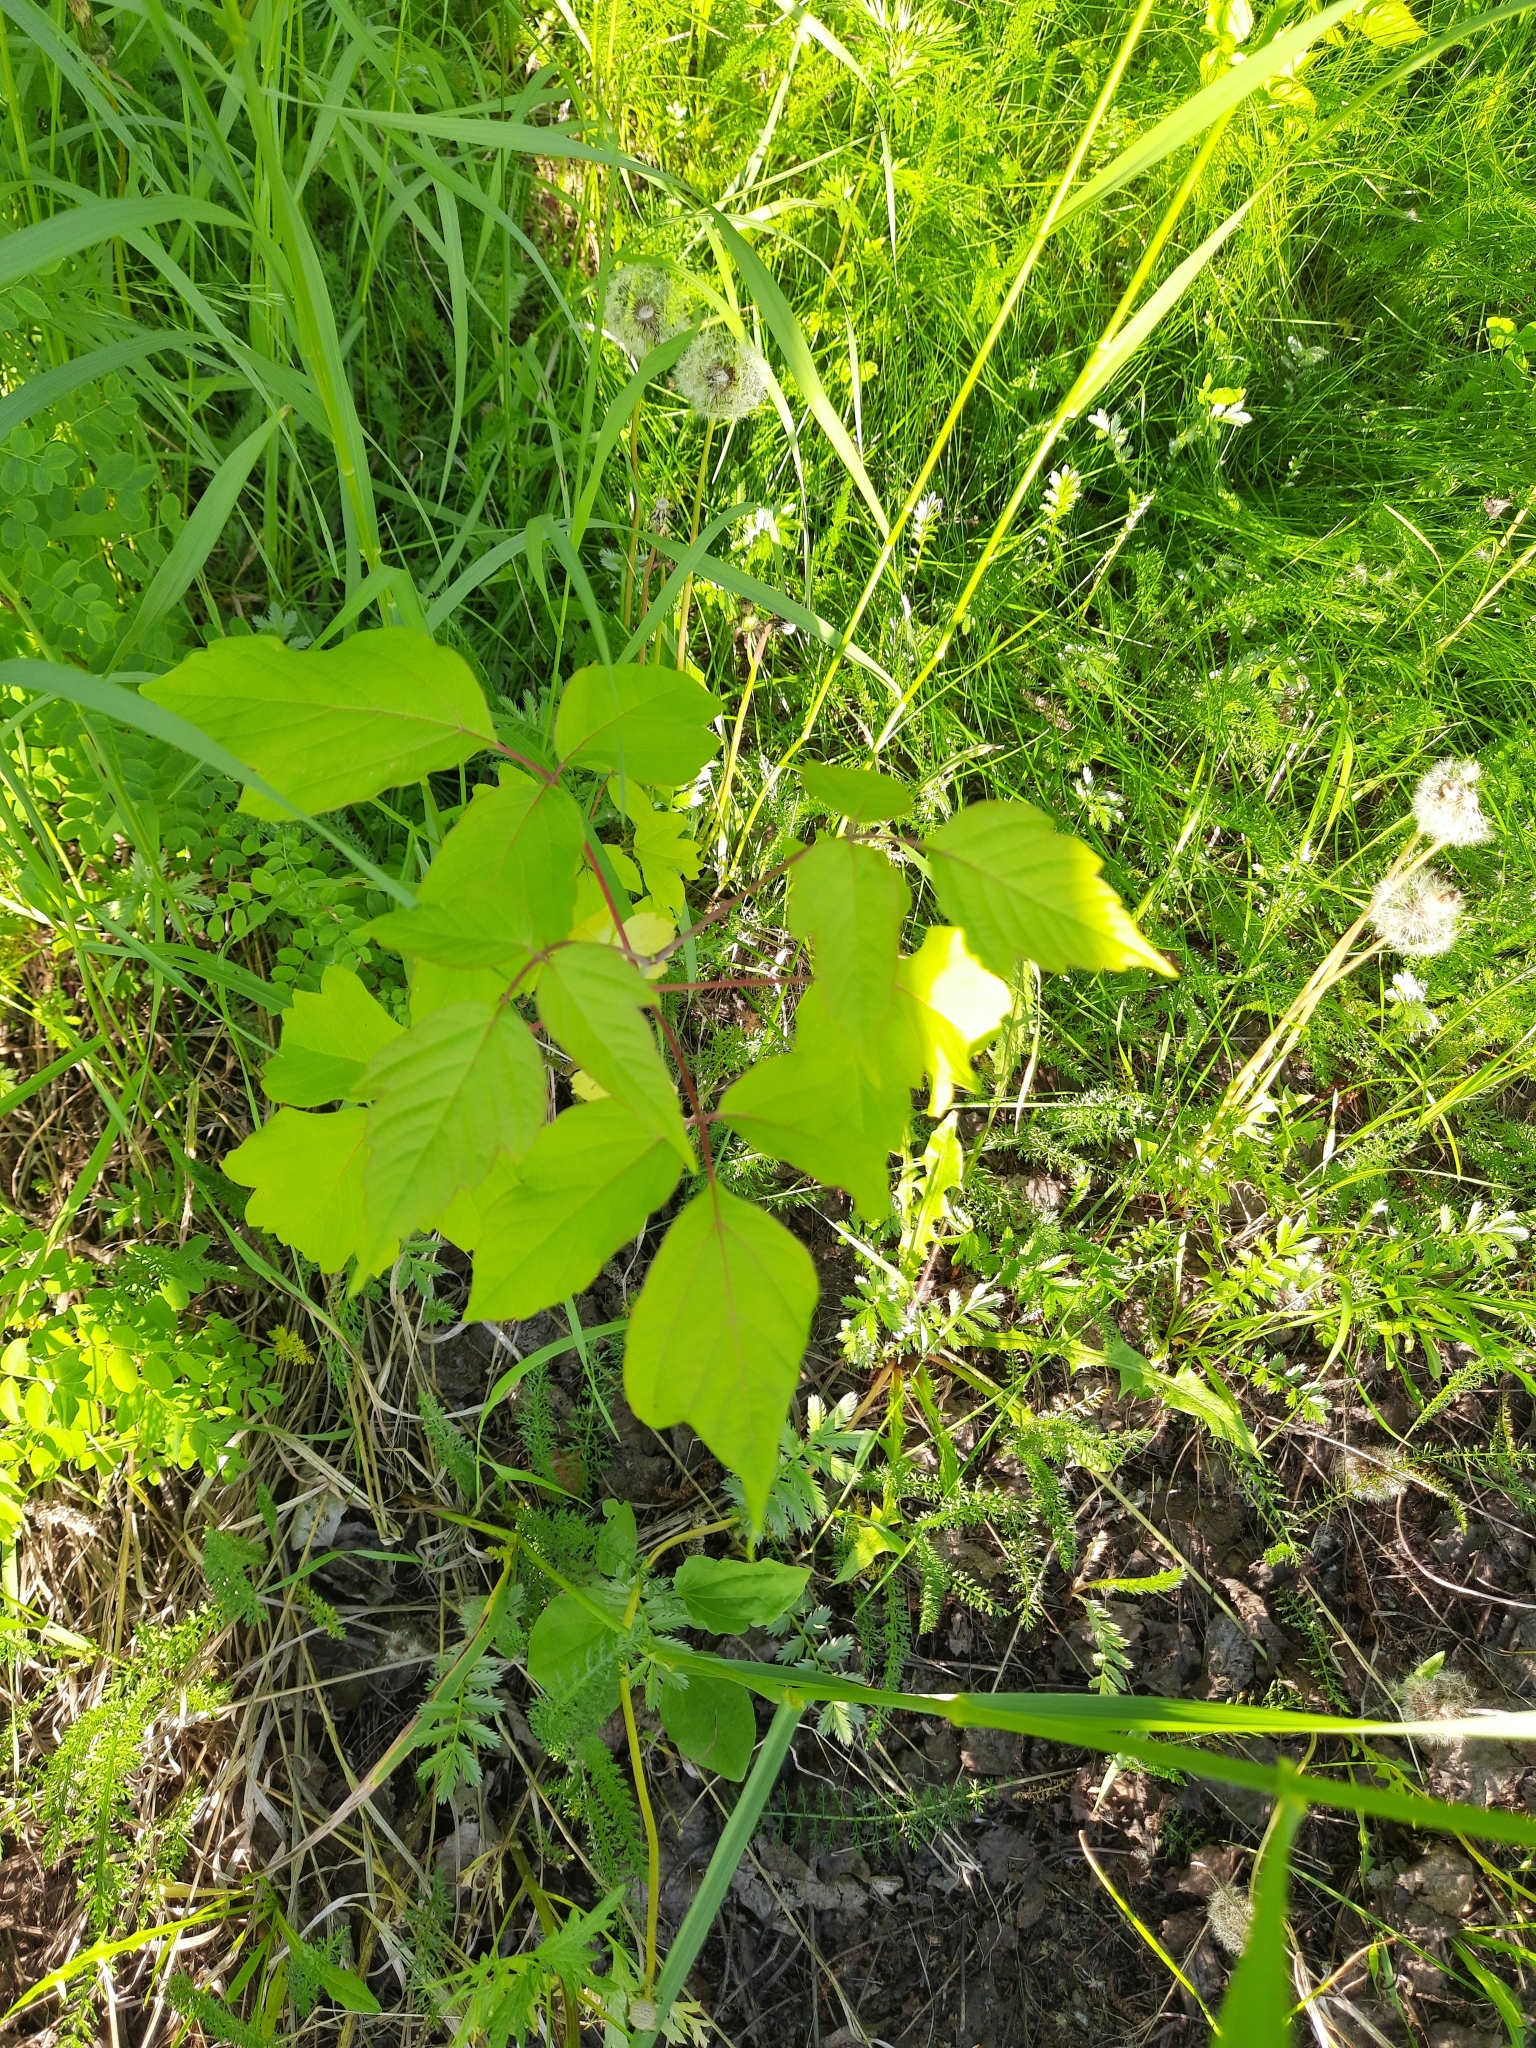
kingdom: Plantae
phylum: Tracheophyta
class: Magnoliopsida
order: Sapindales
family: Sapindaceae
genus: Acer
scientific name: Acer negundo
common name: Ashleaf maple
